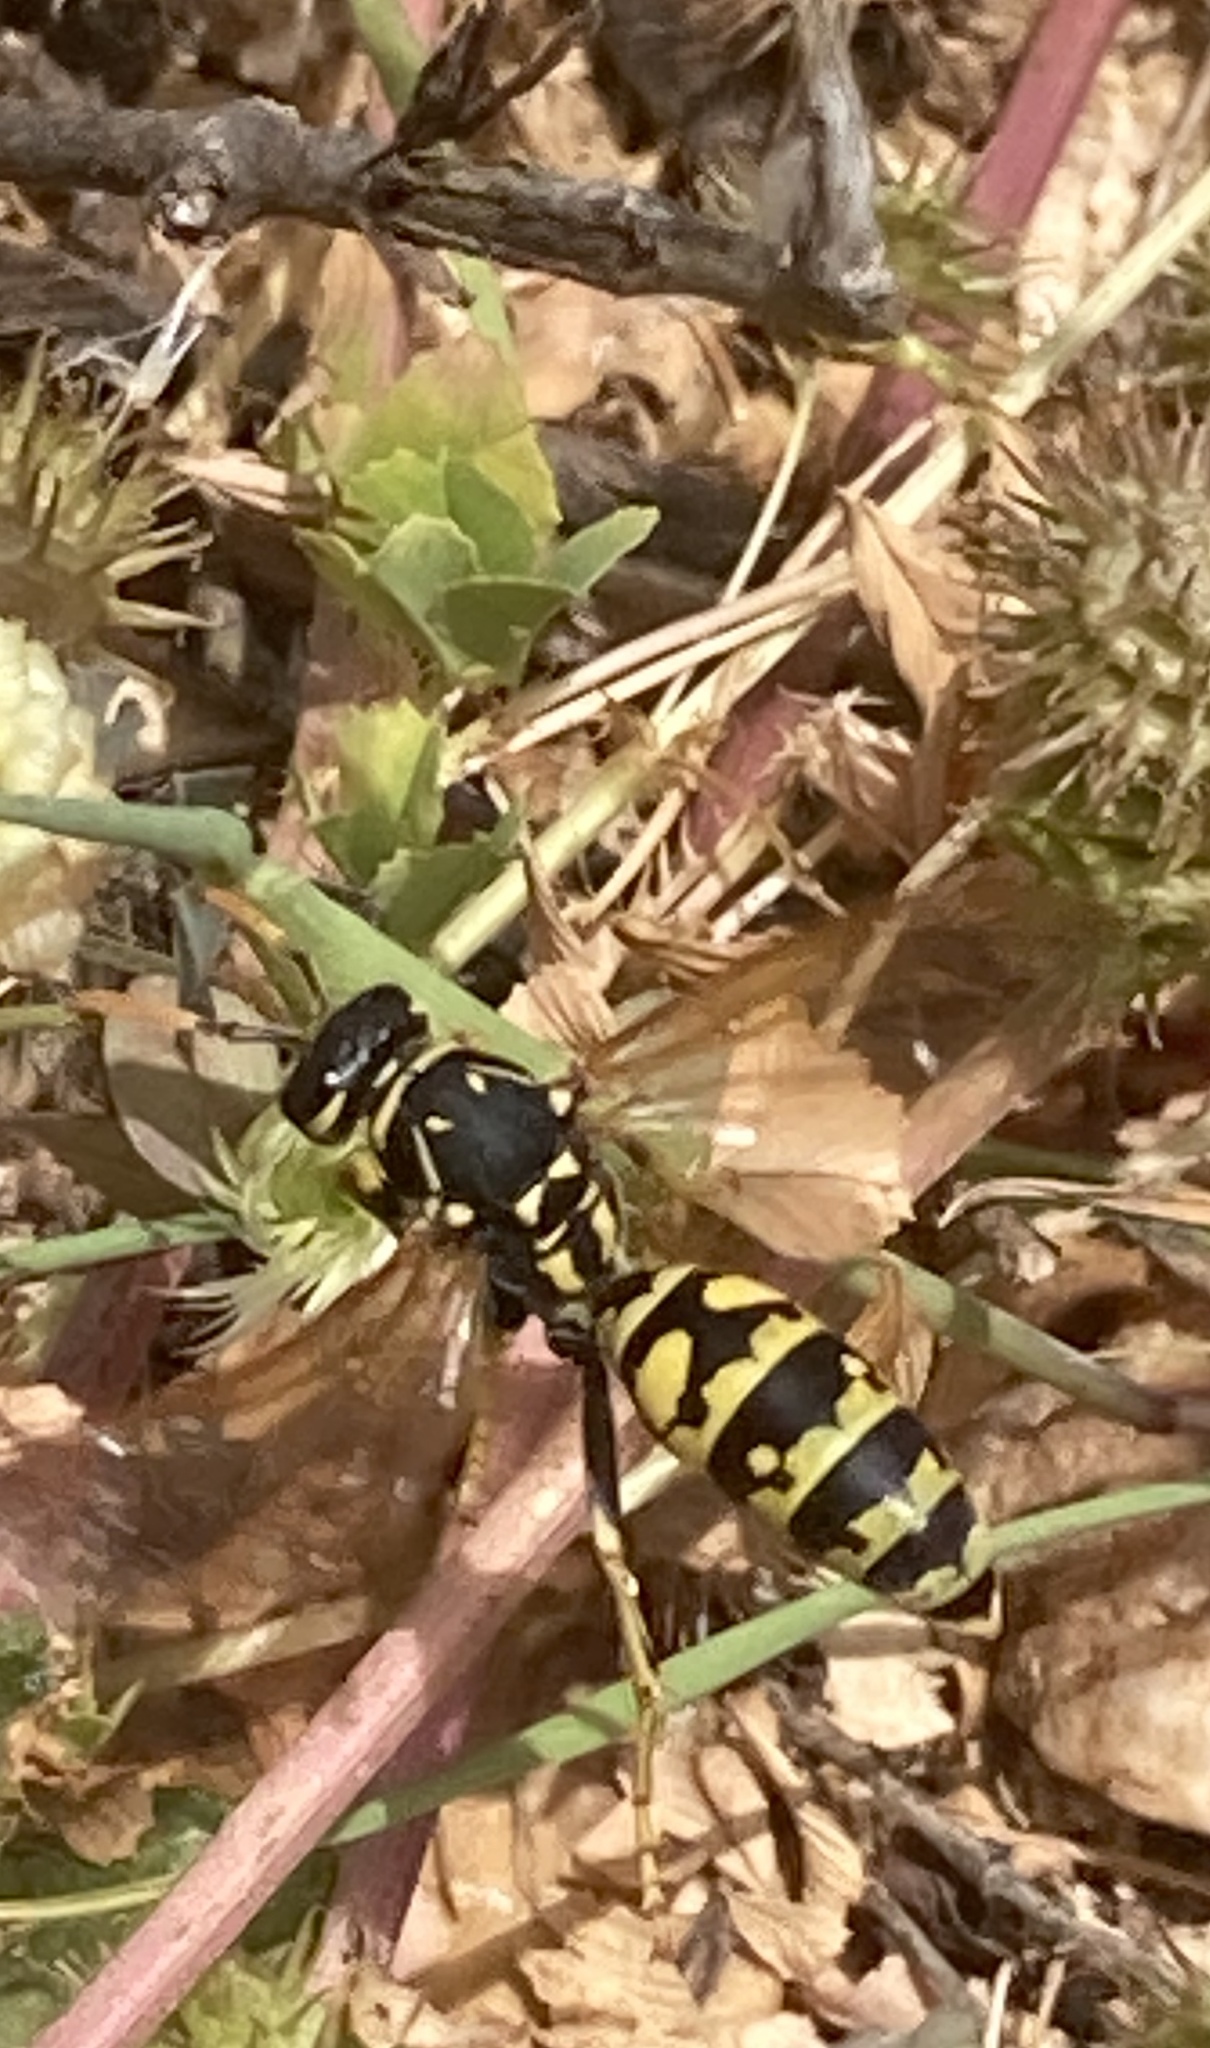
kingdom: Animalia
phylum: Arthropoda
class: Insecta
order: Hymenoptera
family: Eumenidae
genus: Polistes
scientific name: Polistes dominula
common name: Paper wasp
